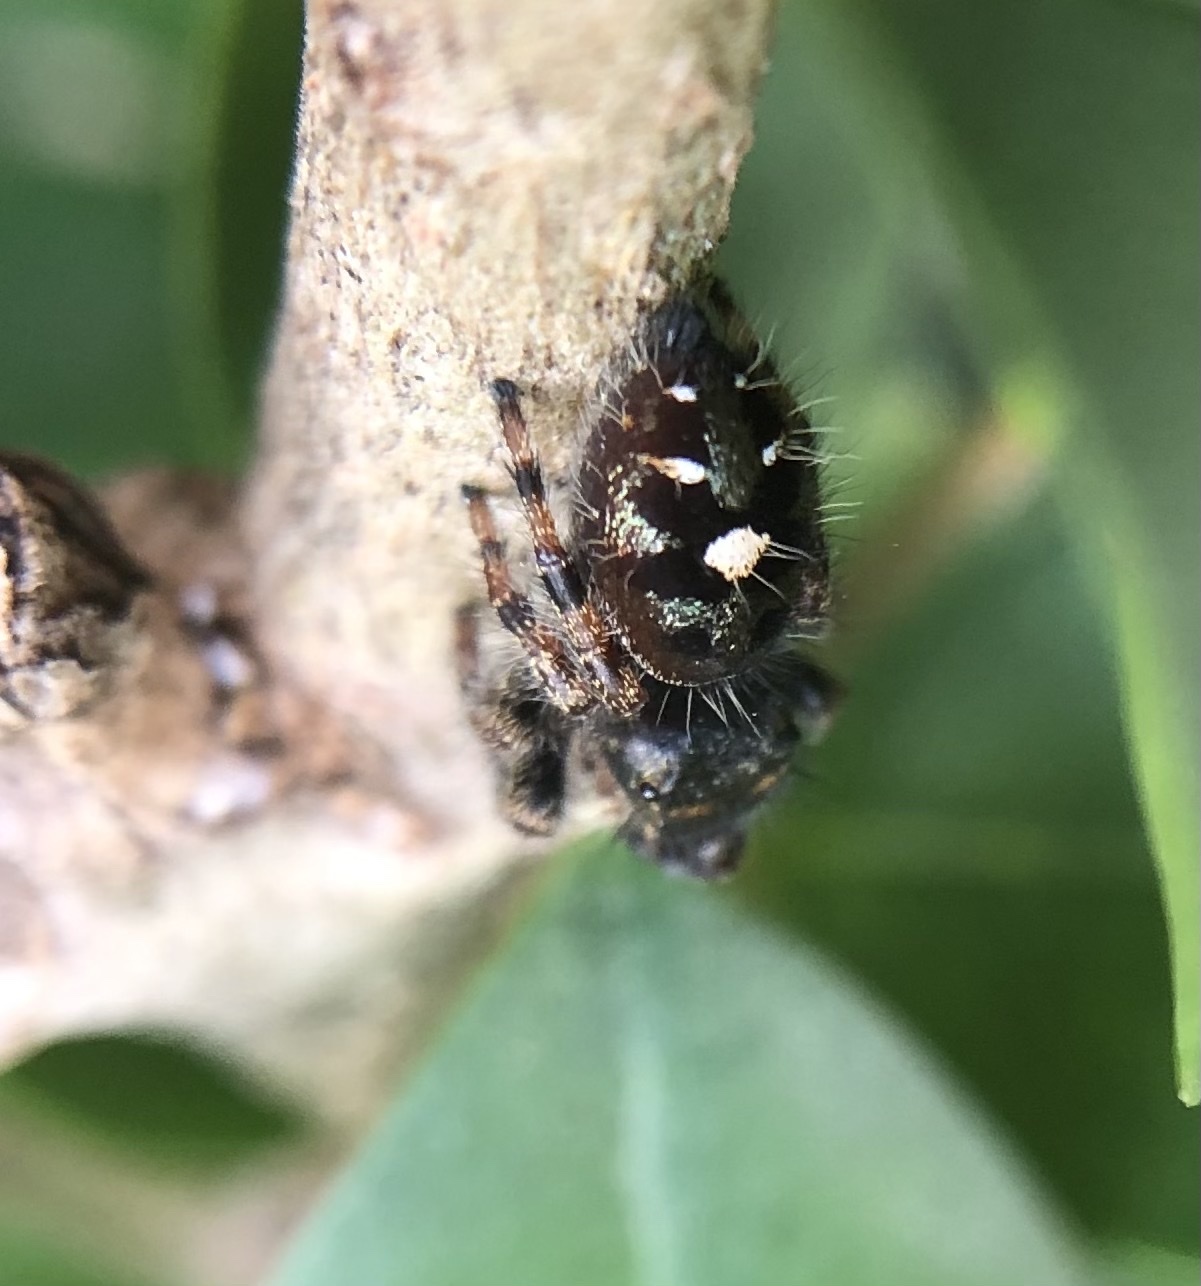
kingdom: Animalia
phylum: Arthropoda
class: Arachnida
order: Araneae
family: Salticidae
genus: Phidippus
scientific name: Phidippus audax
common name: Bold jumper
